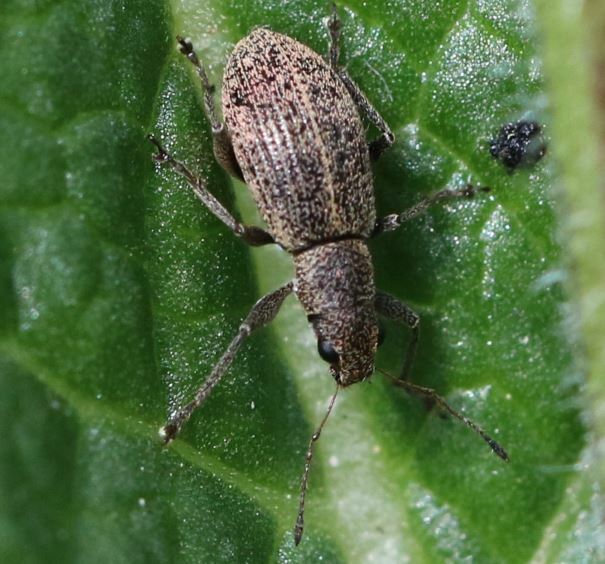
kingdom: Animalia
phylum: Arthropoda
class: Insecta
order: Coleoptera
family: Curculionidae
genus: Polydrusus
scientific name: Polydrusus inustus
